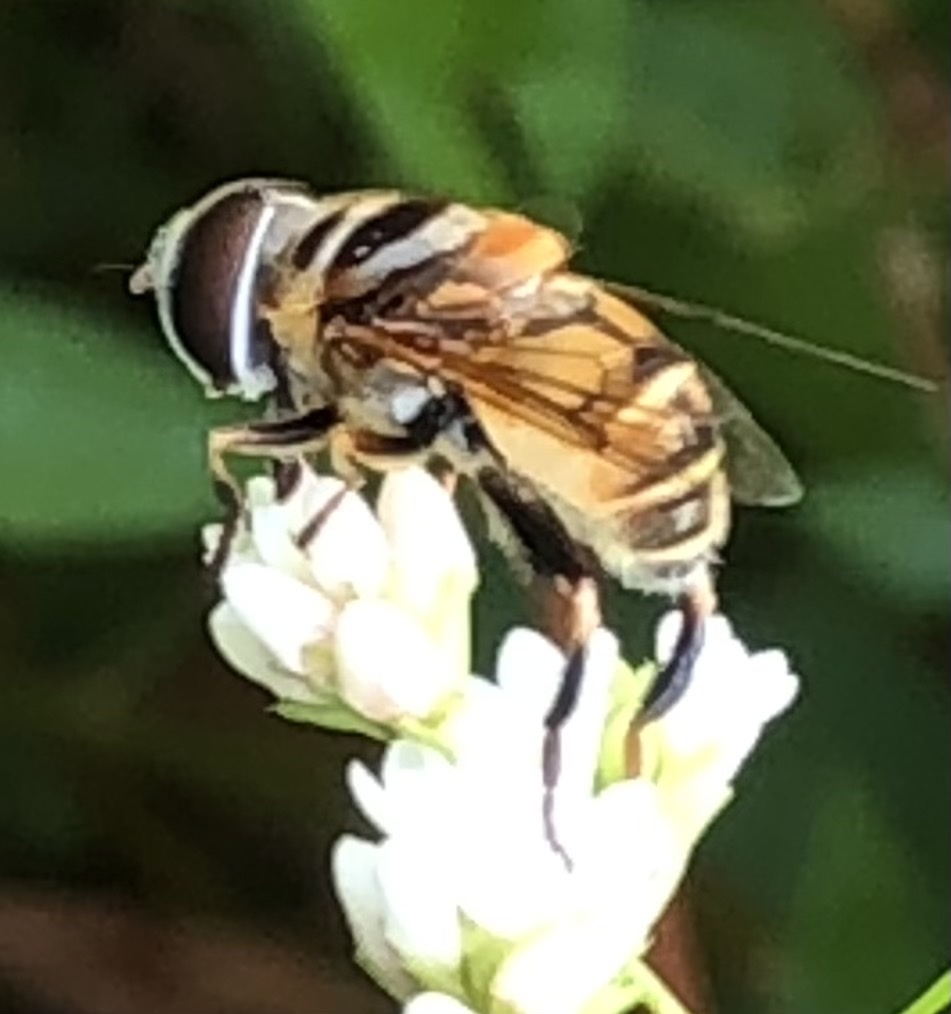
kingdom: Animalia
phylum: Arthropoda
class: Insecta
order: Diptera
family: Syrphidae
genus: Palpada
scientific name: Palpada vinetorum
